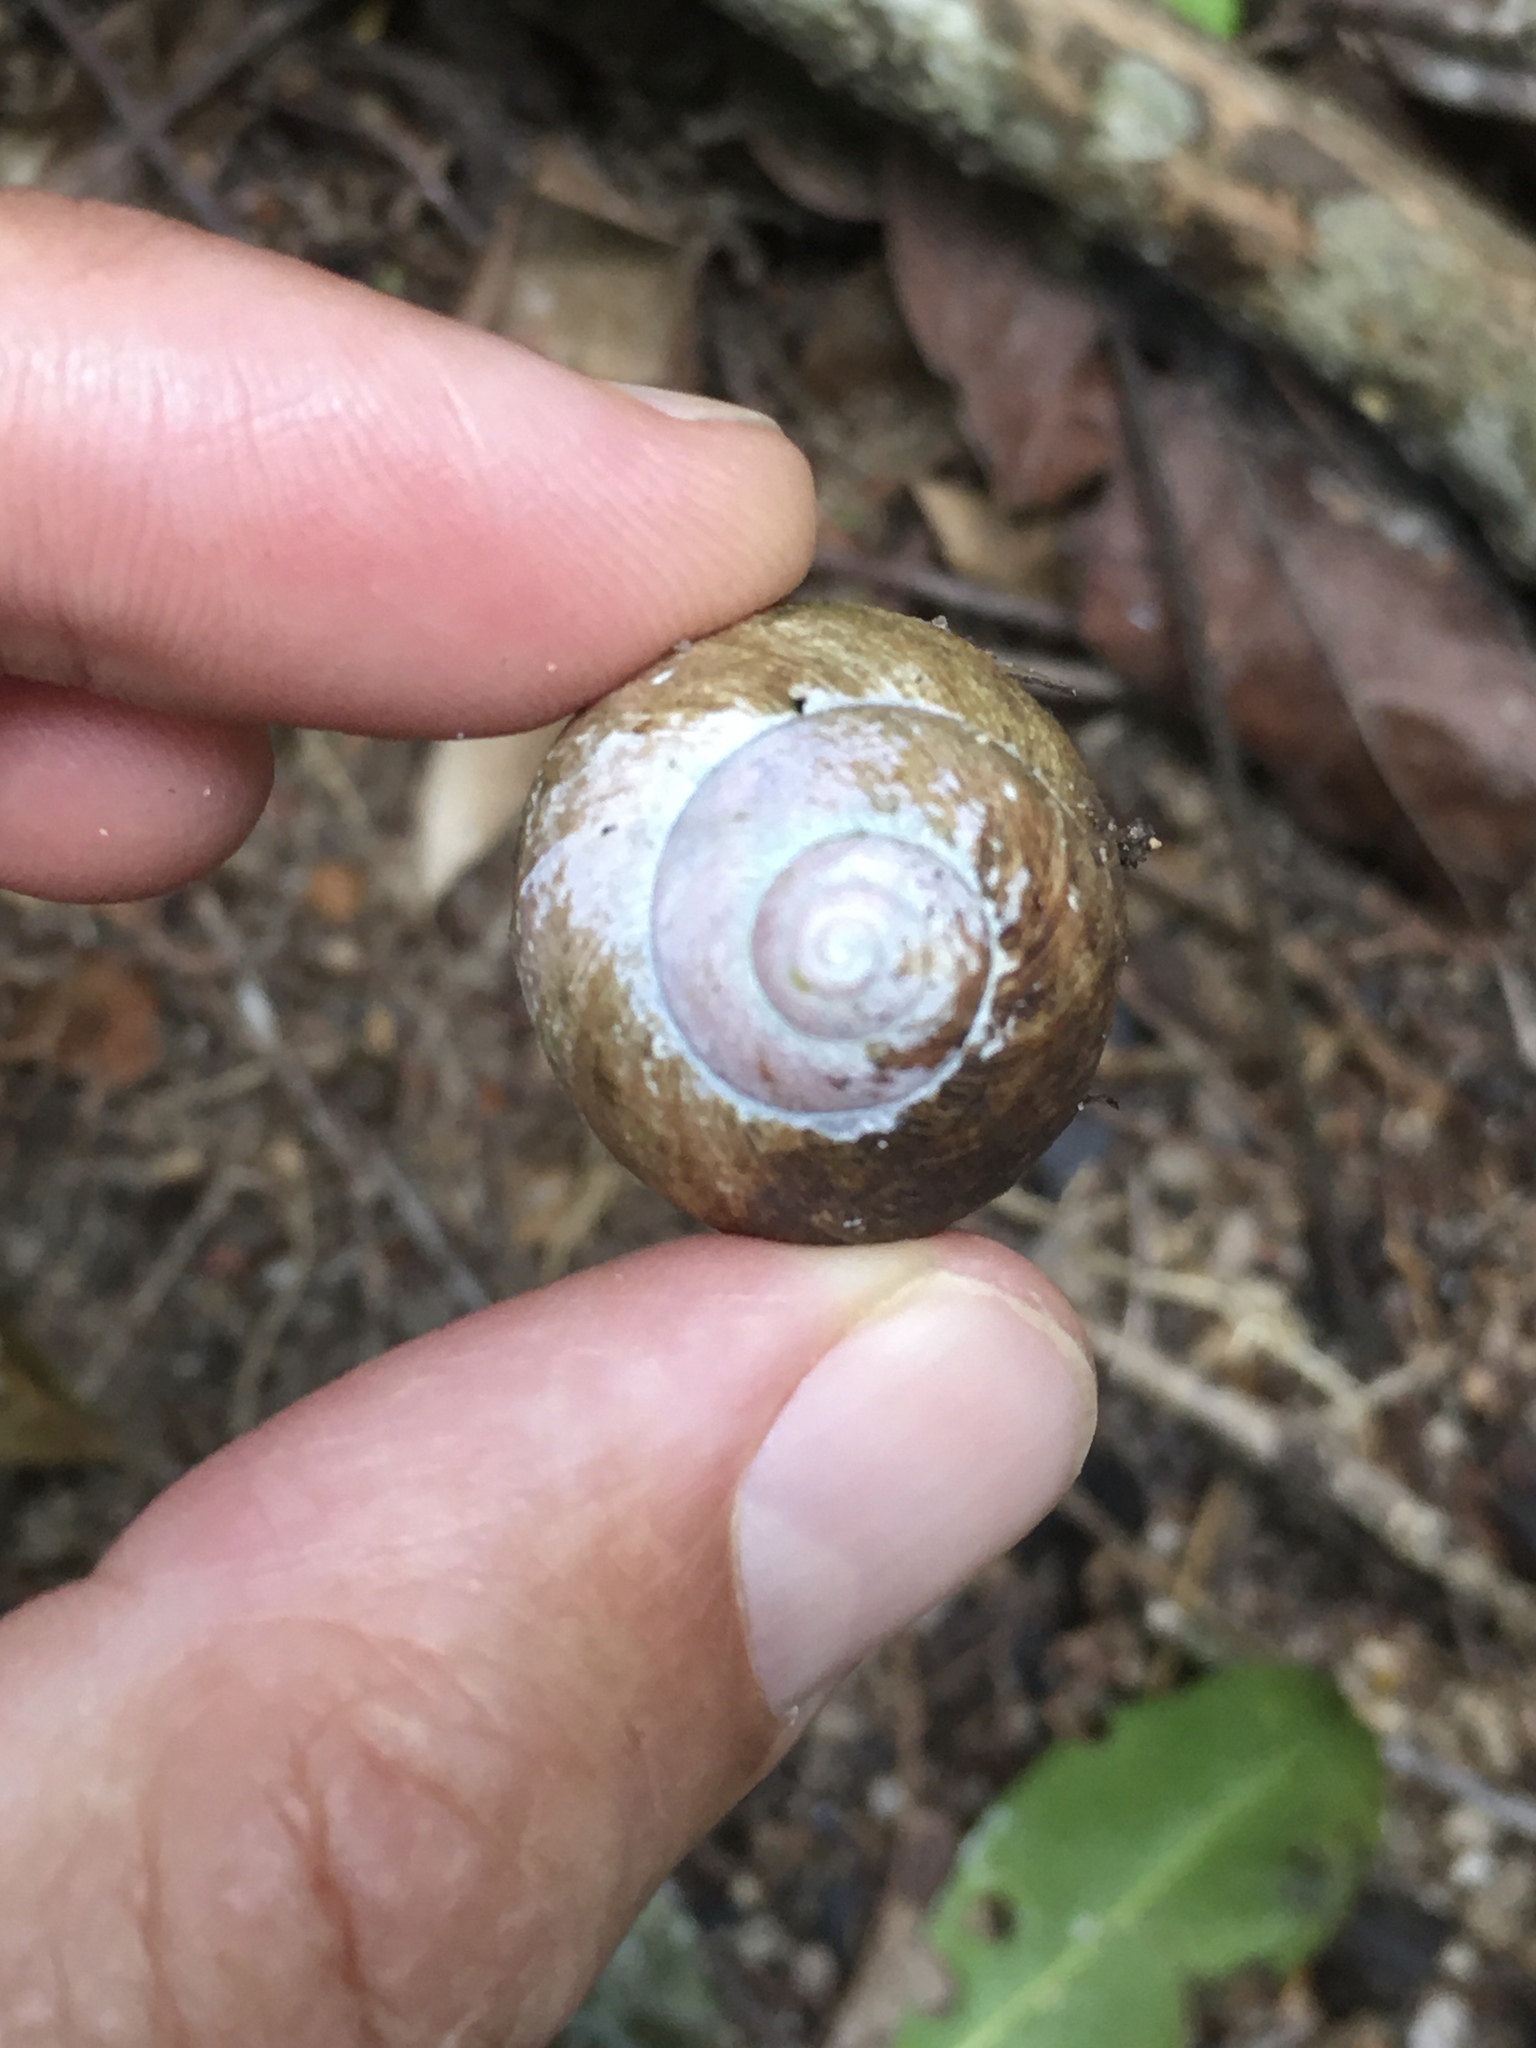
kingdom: Animalia
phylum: Mollusca
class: Gastropoda
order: Stylommatophora
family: Strophocheilidae
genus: Strophocheilus
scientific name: Strophocheilus pudicus
